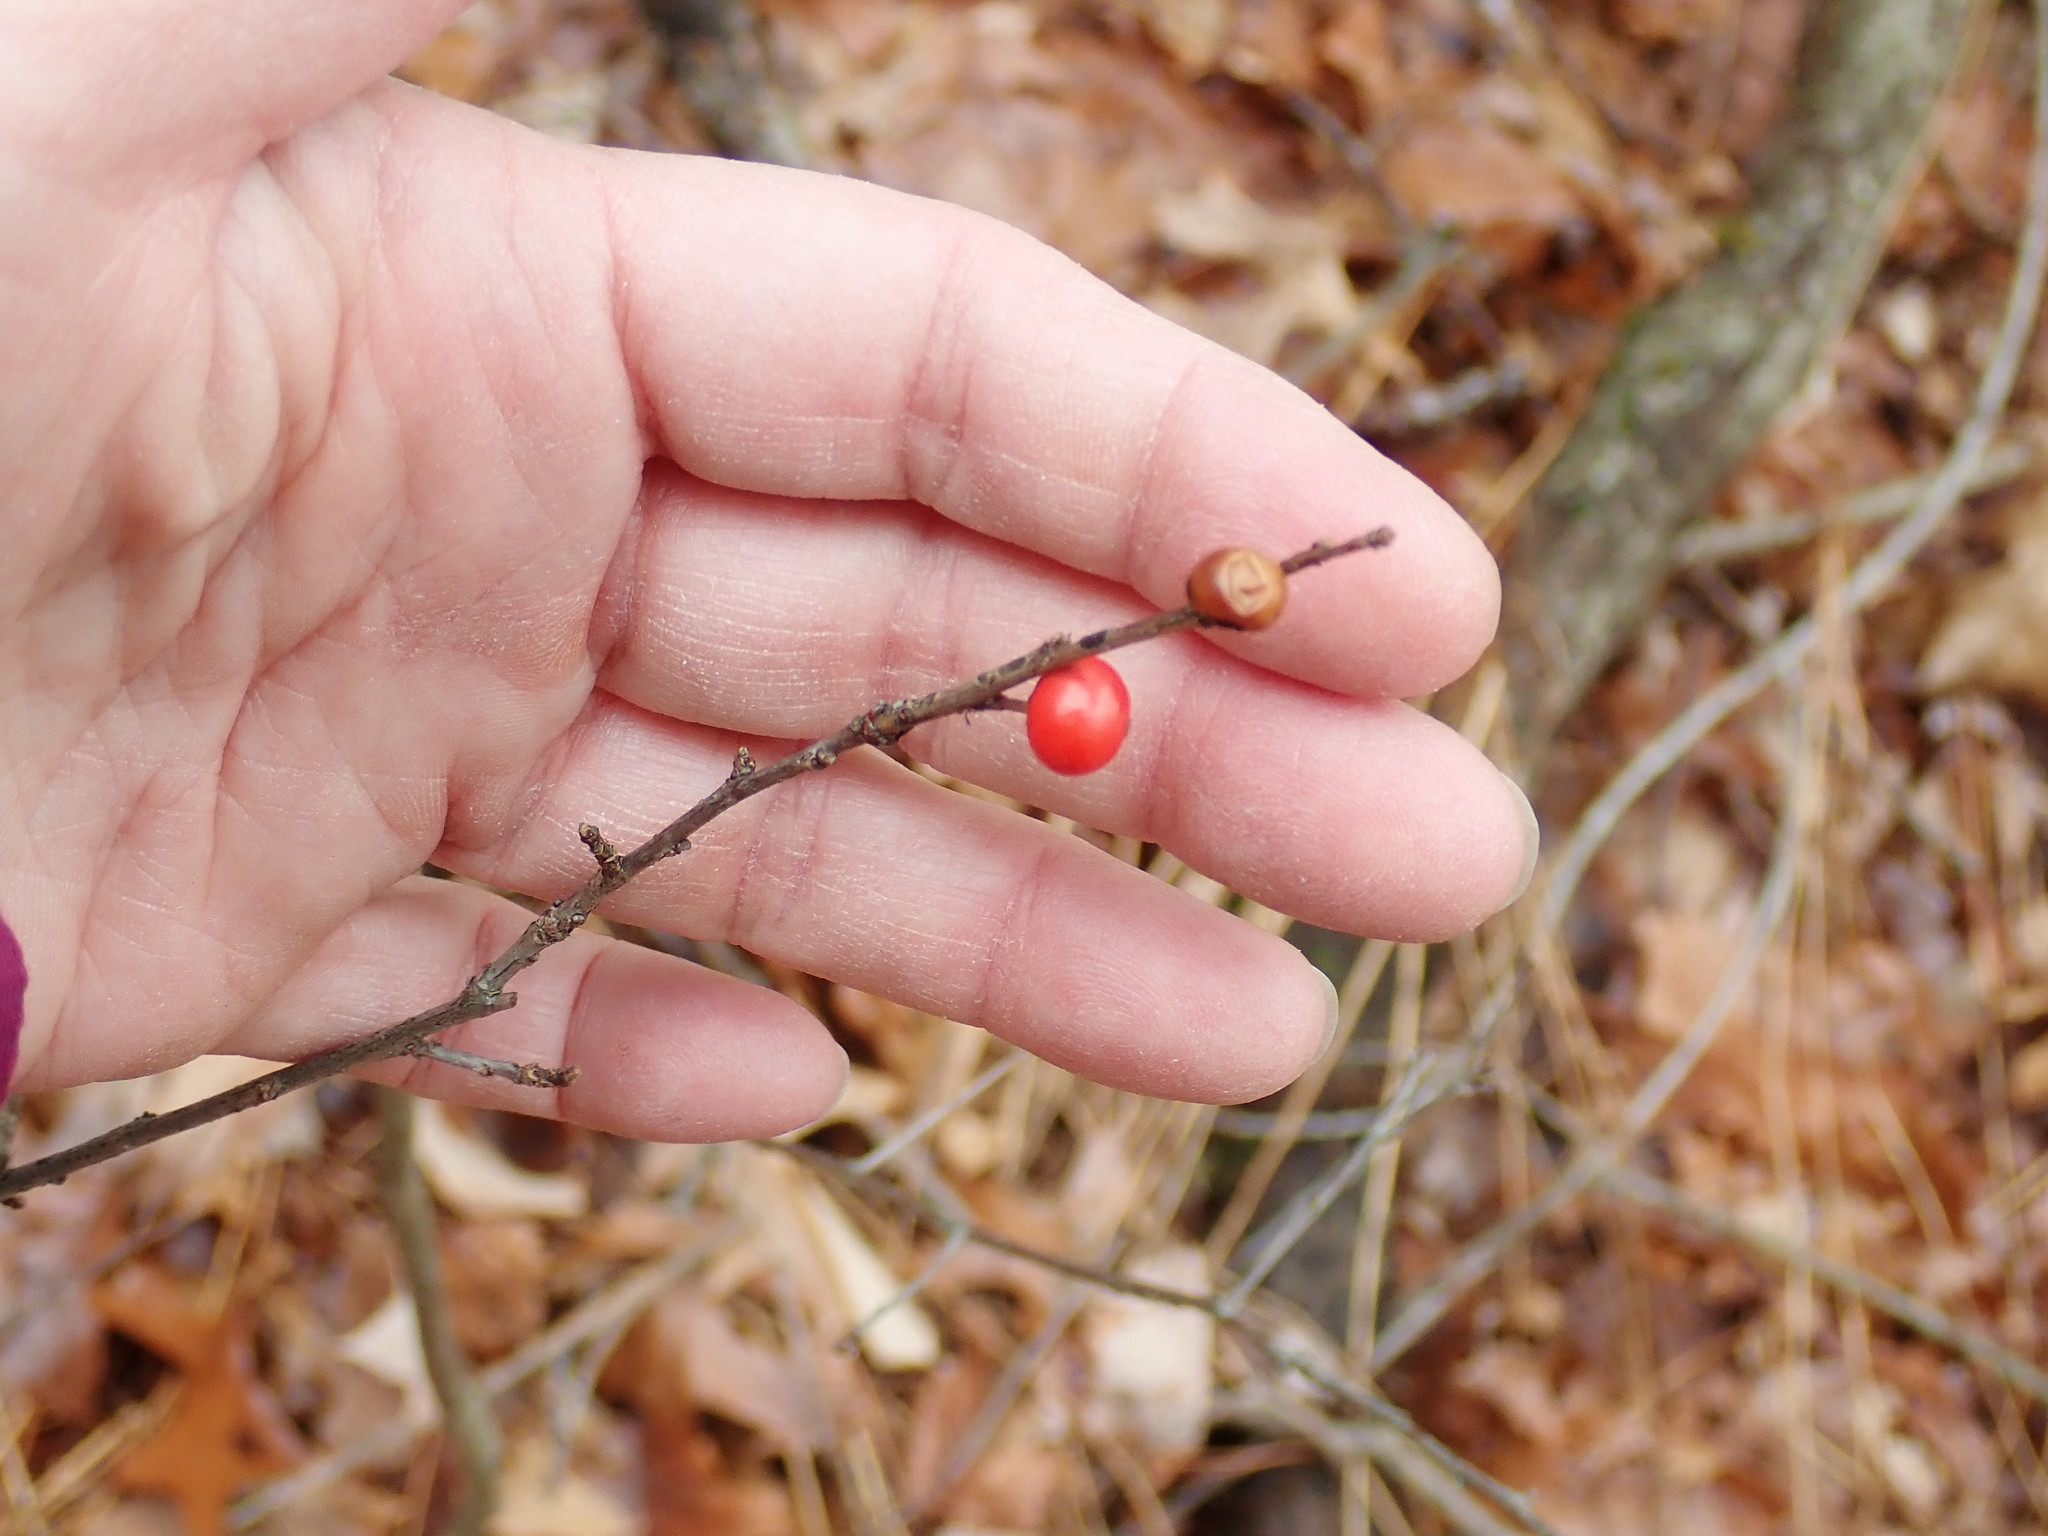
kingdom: Plantae
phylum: Tracheophyta
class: Magnoliopsida
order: Aquifoliales
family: Aquifoliaceae
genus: Ilex
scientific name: Ilex verticillata
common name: Virginia winterberry
